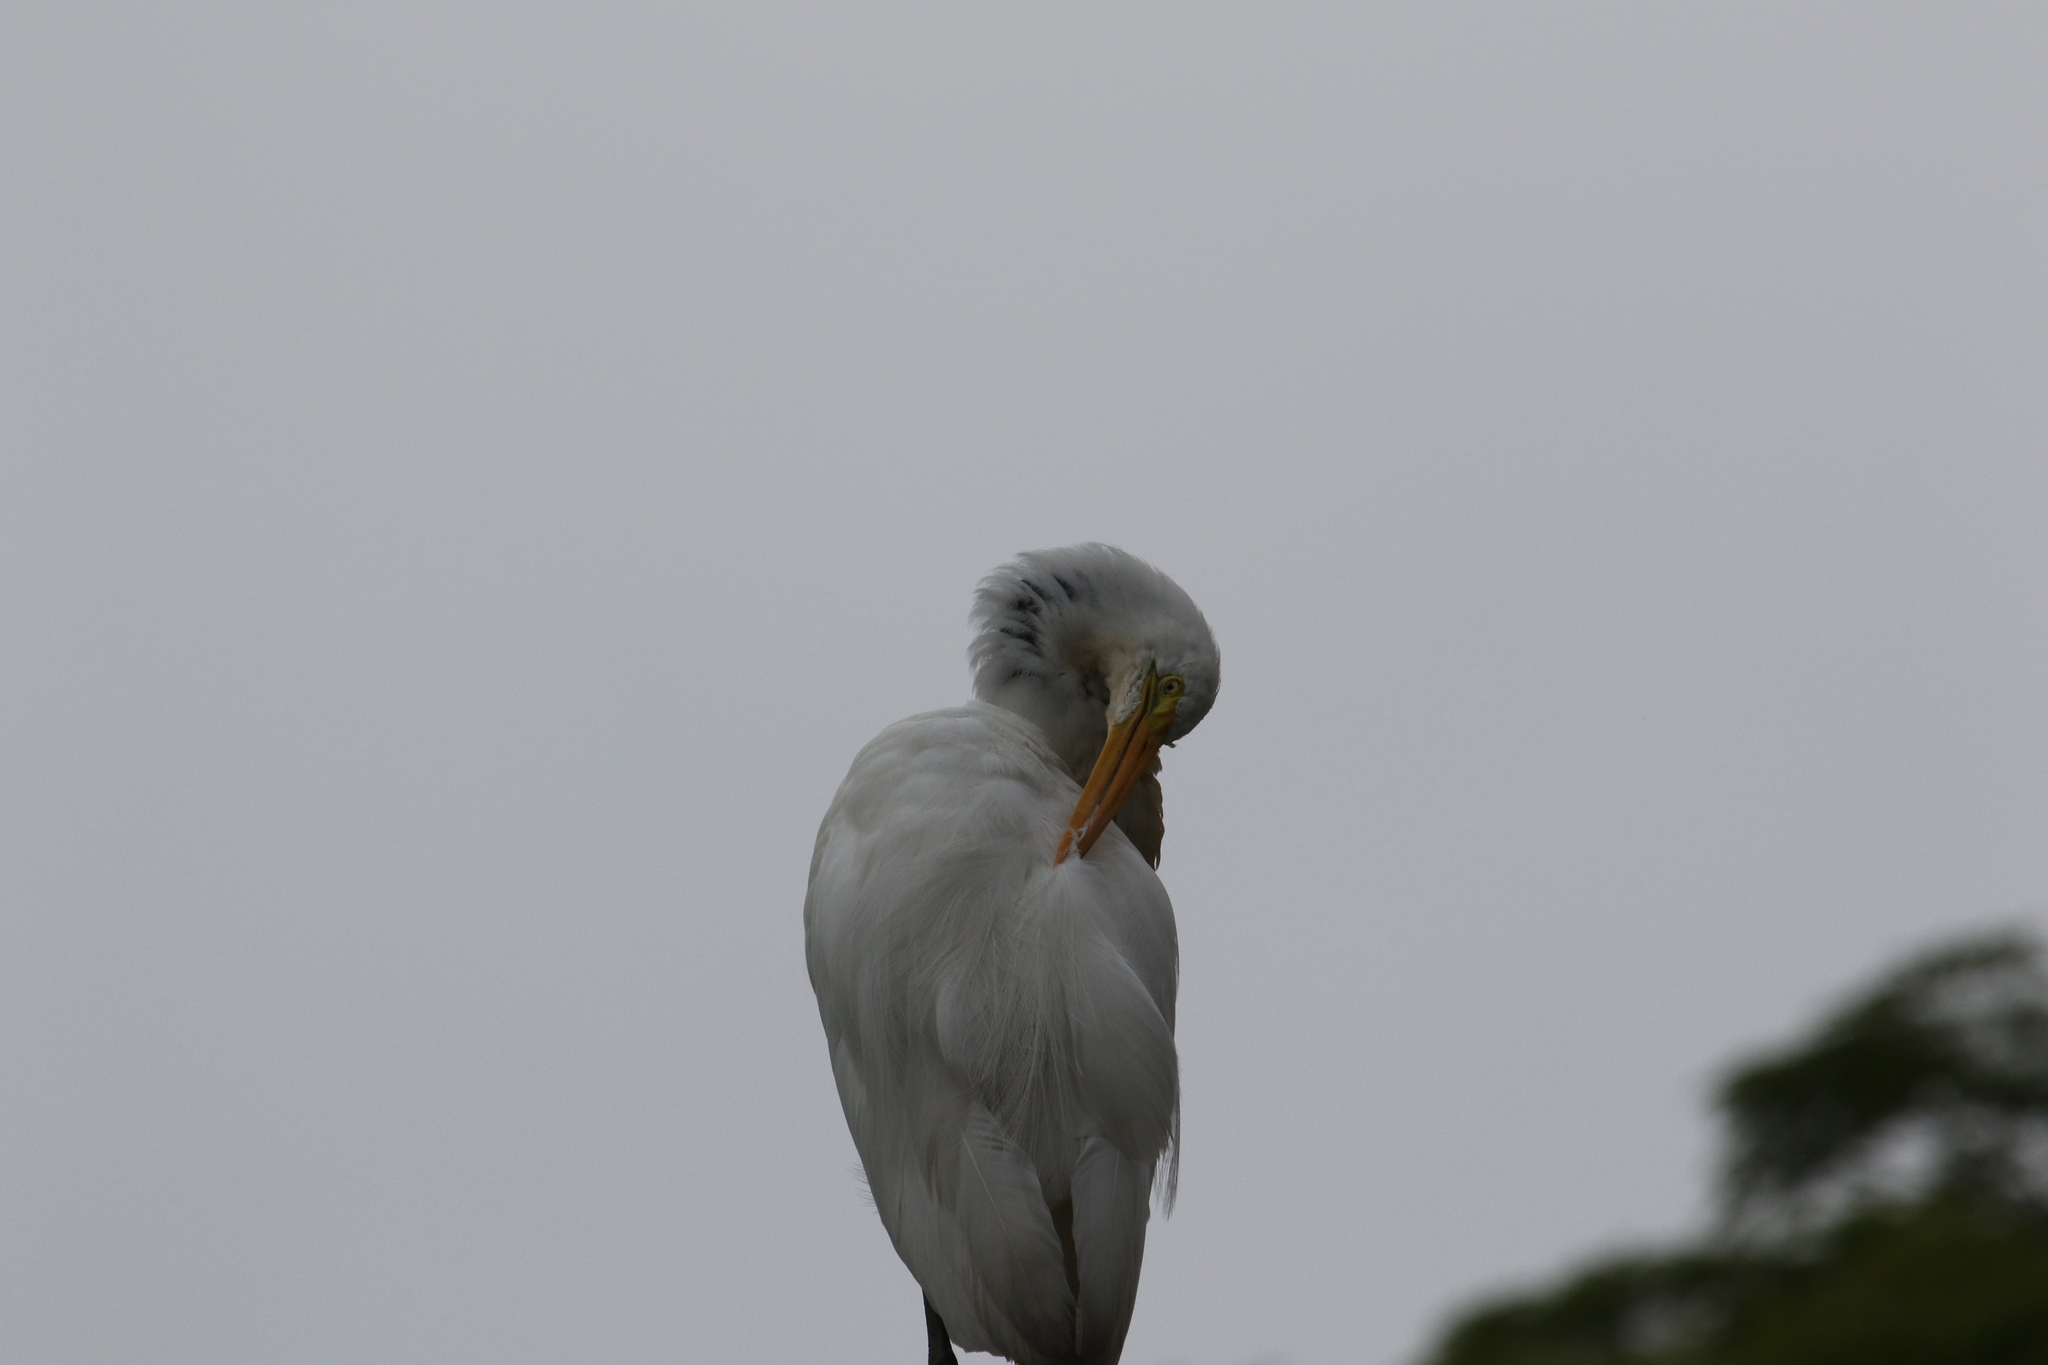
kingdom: Animalia
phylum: Chordata
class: Aves
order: Pelecaniformes
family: Ardeidae
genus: Ardea
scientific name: Ardea alba
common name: Great egret
